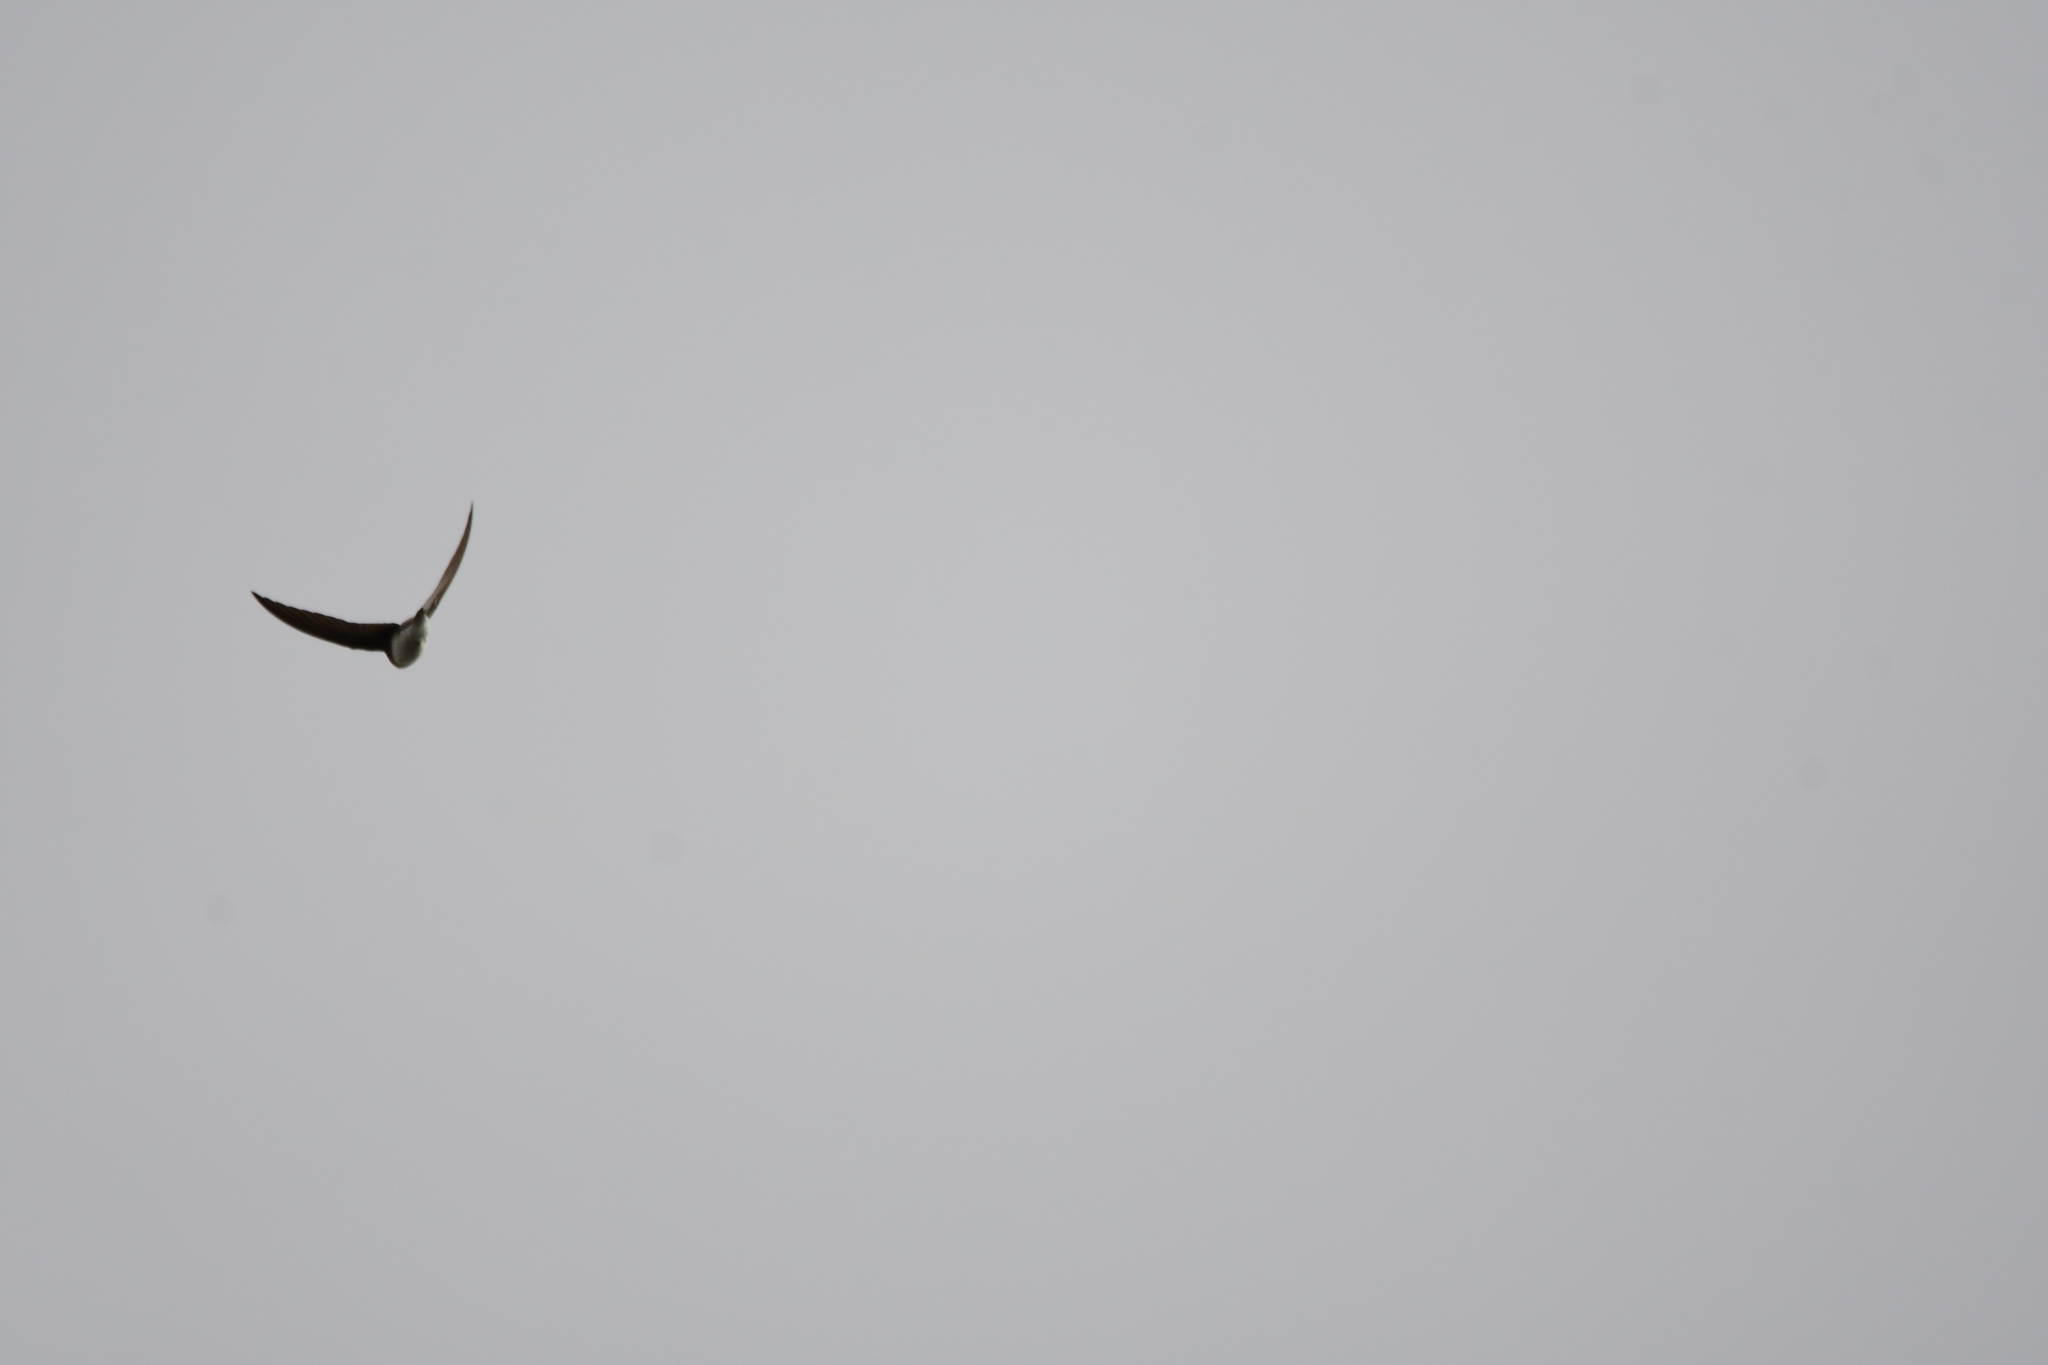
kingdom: Animalia
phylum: Chordata
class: Aves
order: Passeriformes
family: Hirundinidae
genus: Riparia
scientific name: Riparia riparia
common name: Sand martin
